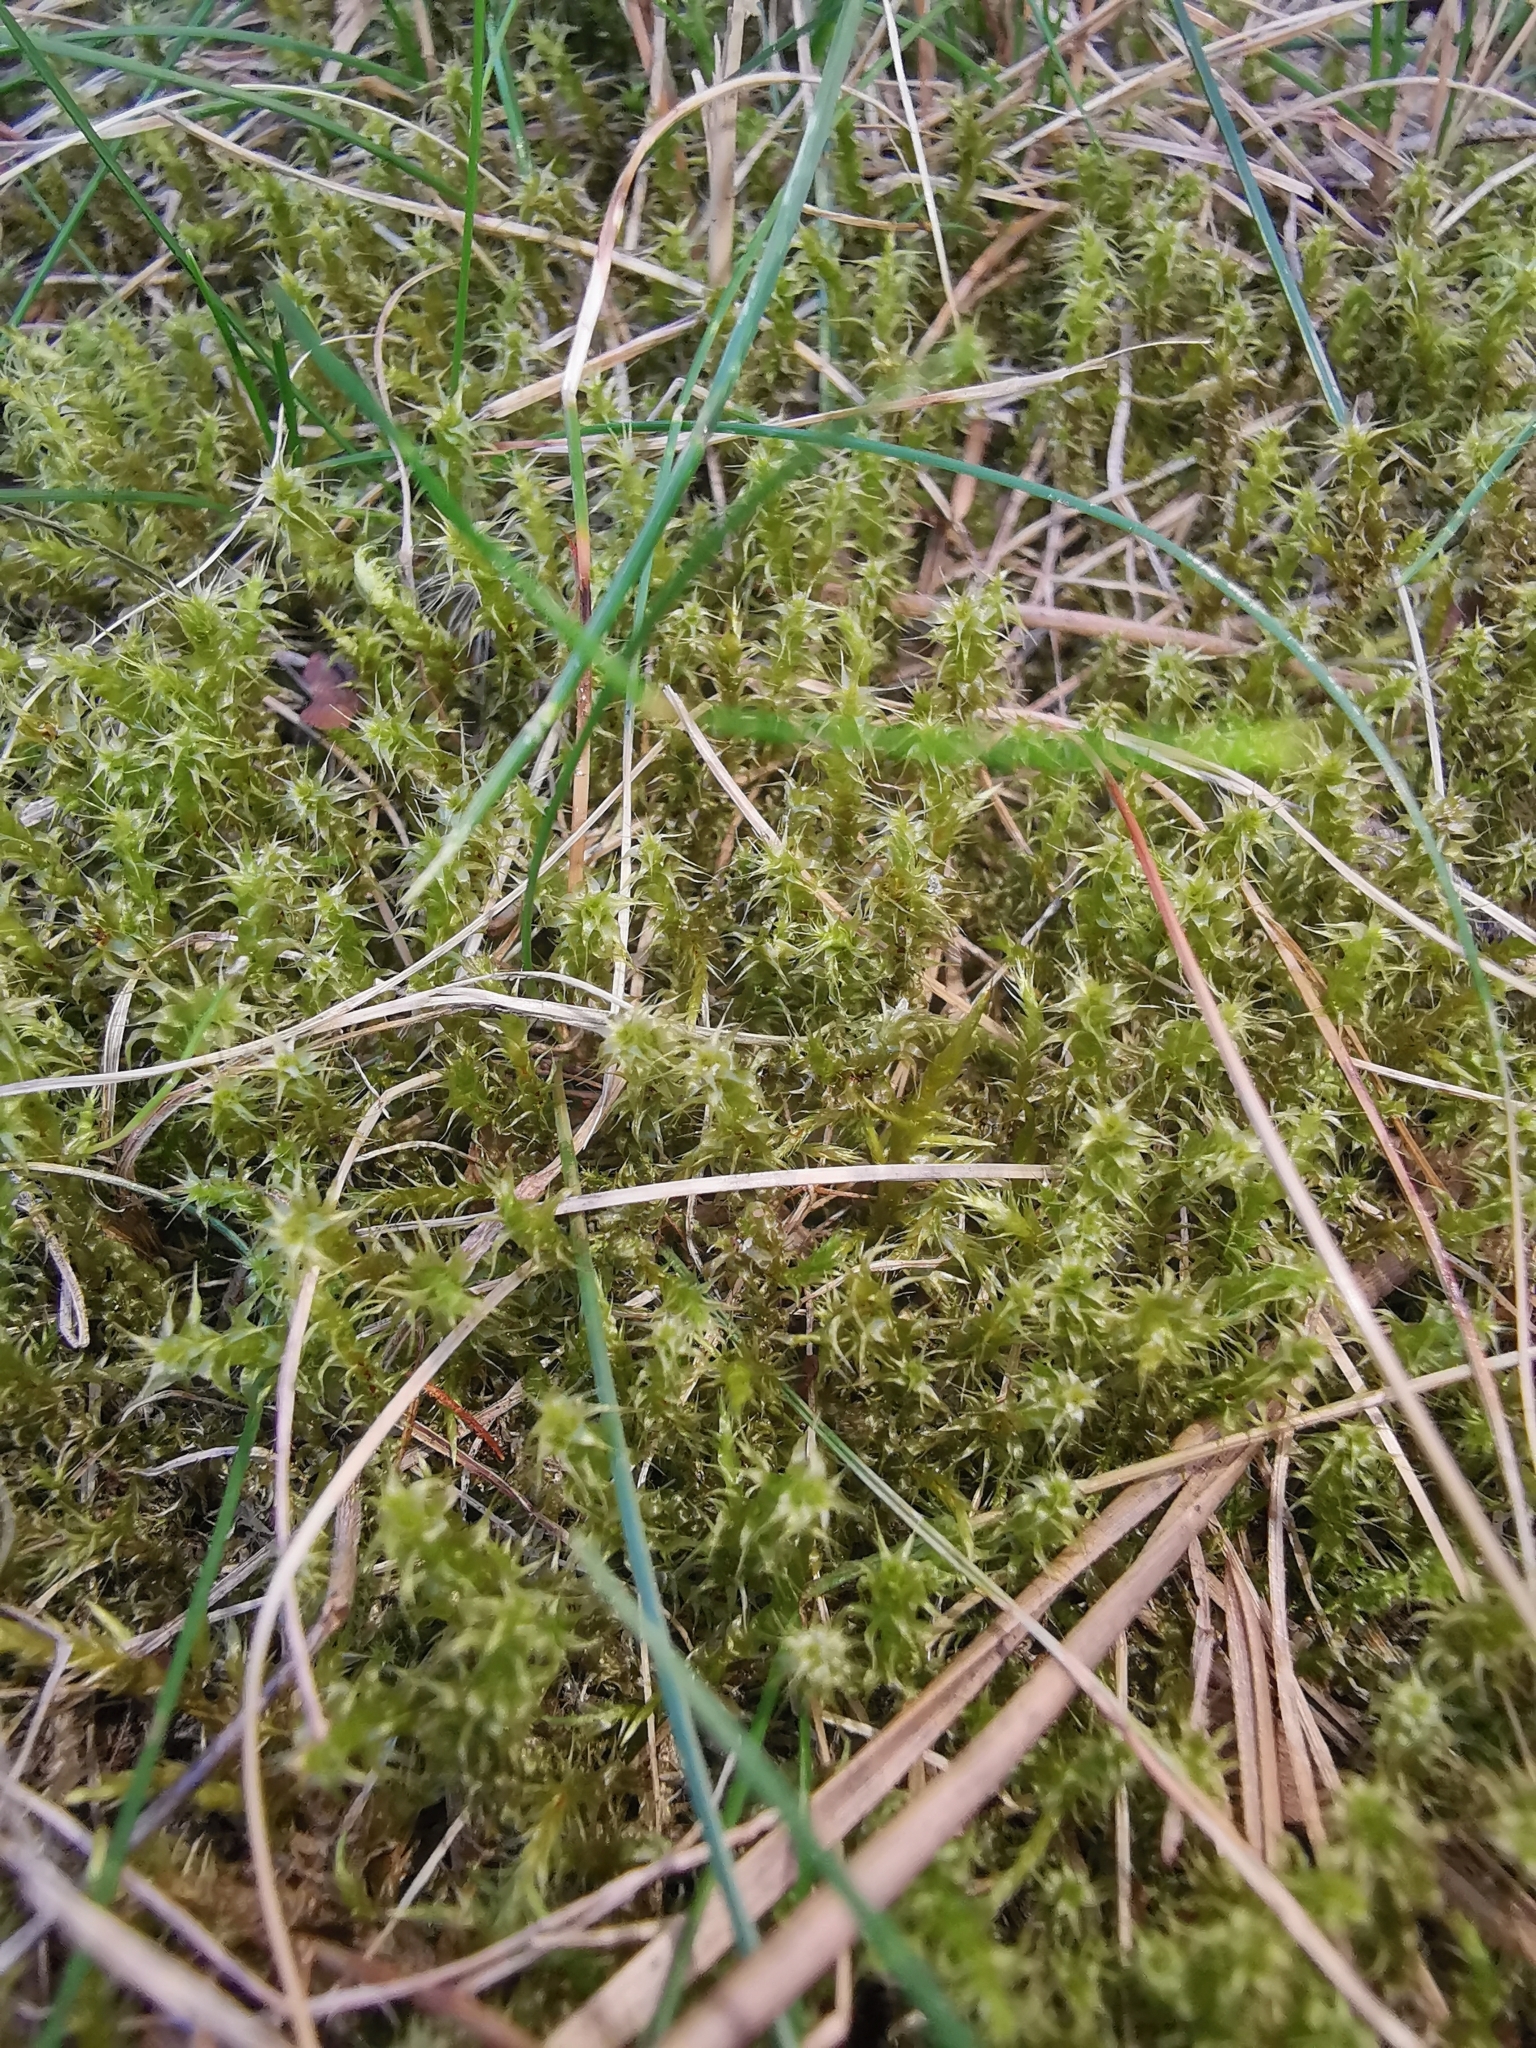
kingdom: Plantae
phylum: Bryophyta
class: Bryopsida
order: Hypnales
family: Hylocomiaceae
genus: Rhytidiadelphus
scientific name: Rhytidiadelphus squarrosus
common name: Springy turf-moss
